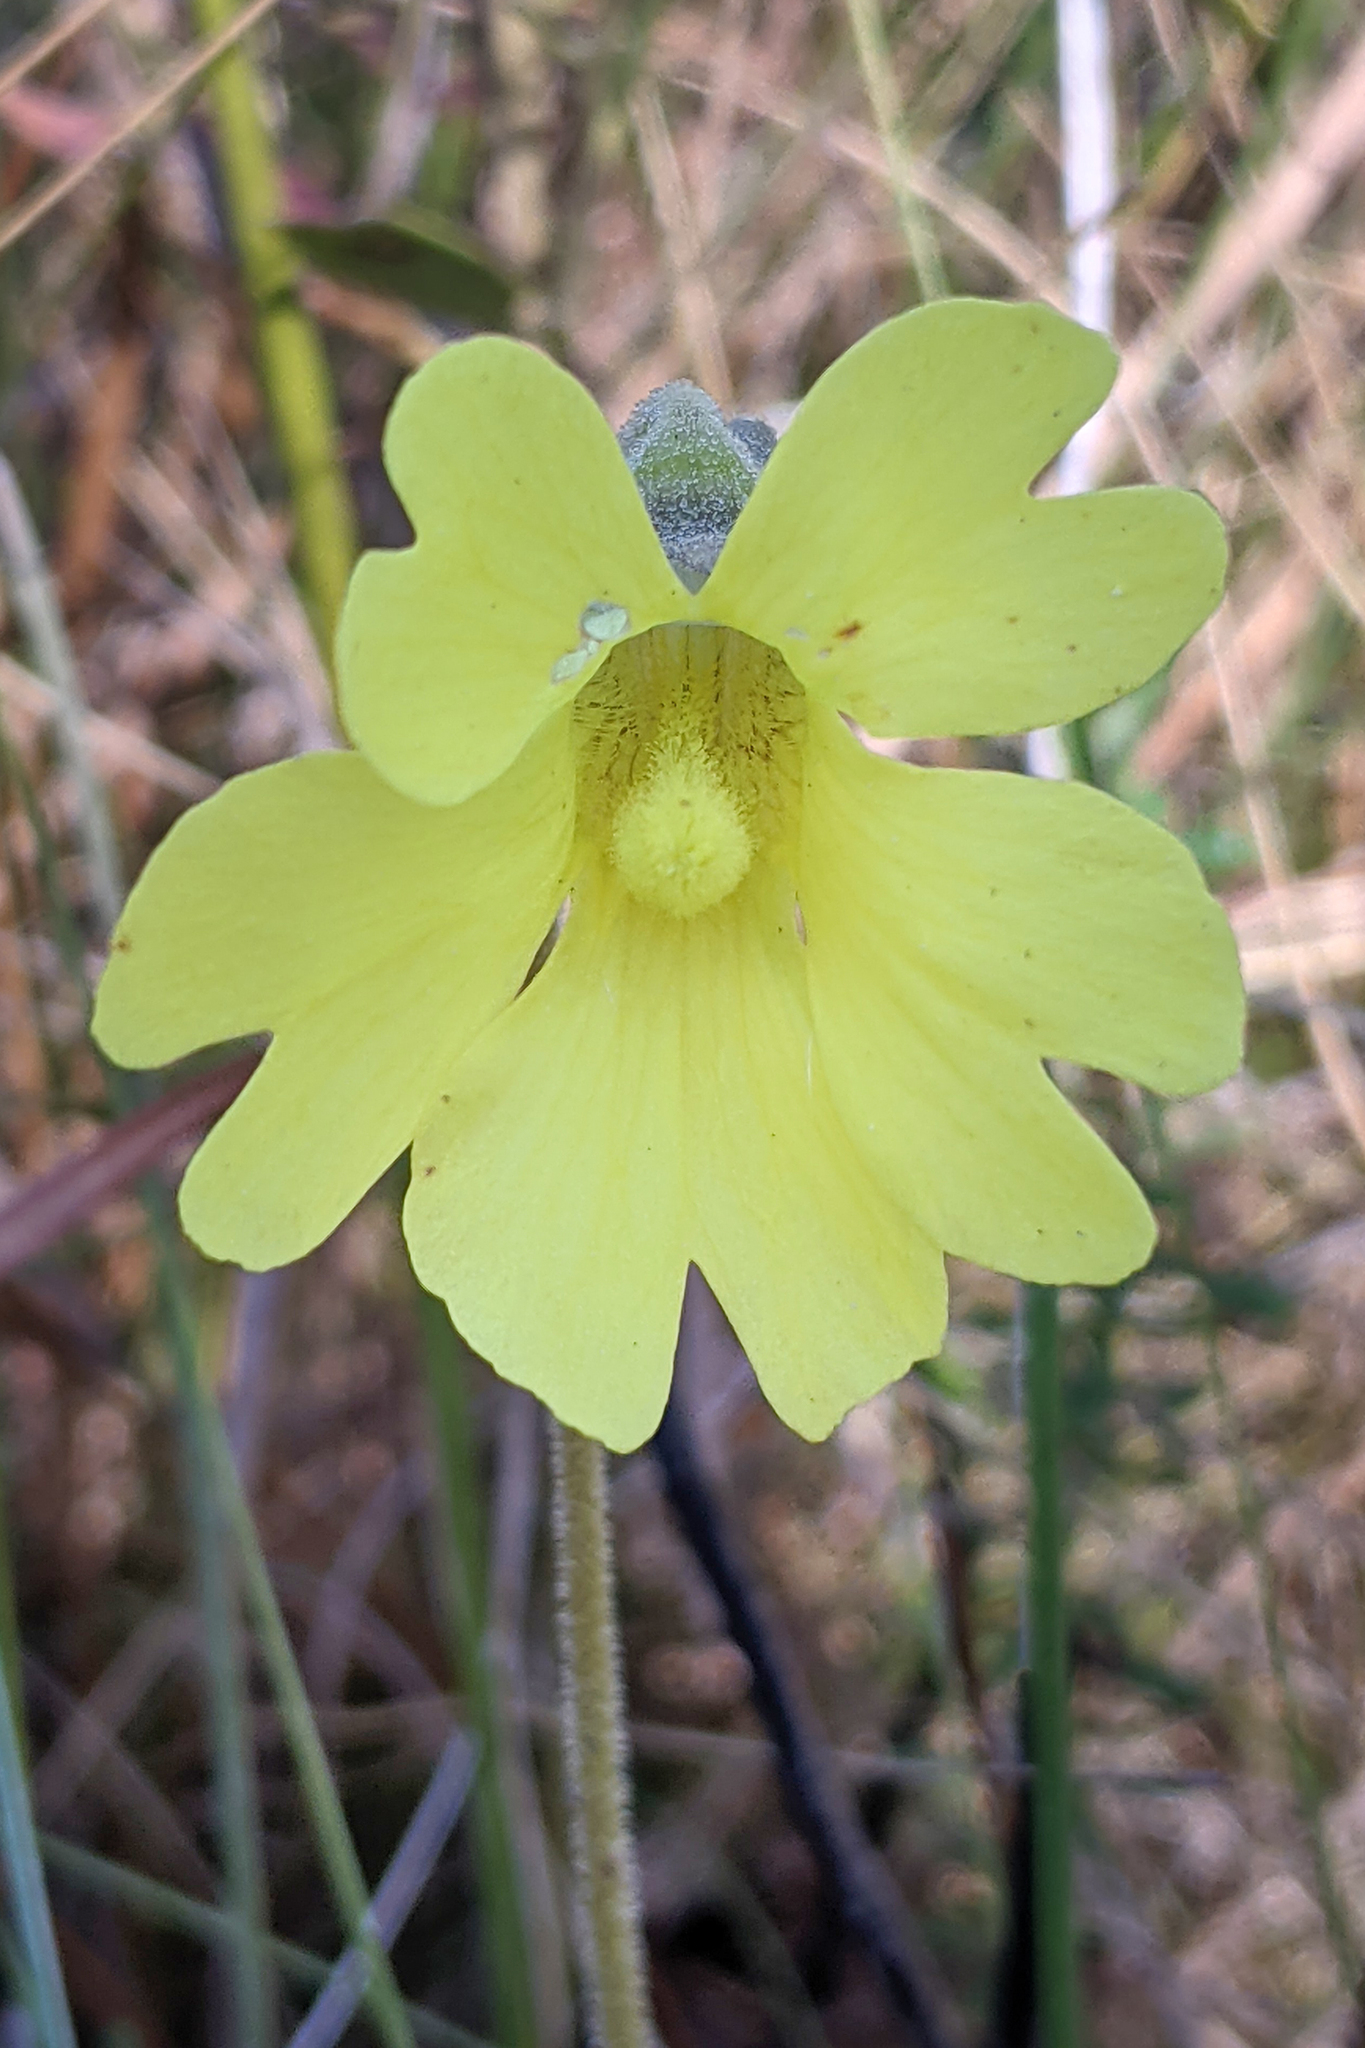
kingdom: Plantae
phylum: Tracheophyta
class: Magnoliopsida
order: Lamiales
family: Lentibulariaceae
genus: Pinguicula
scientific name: Pinguicula lutea
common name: Yellow butterwort
